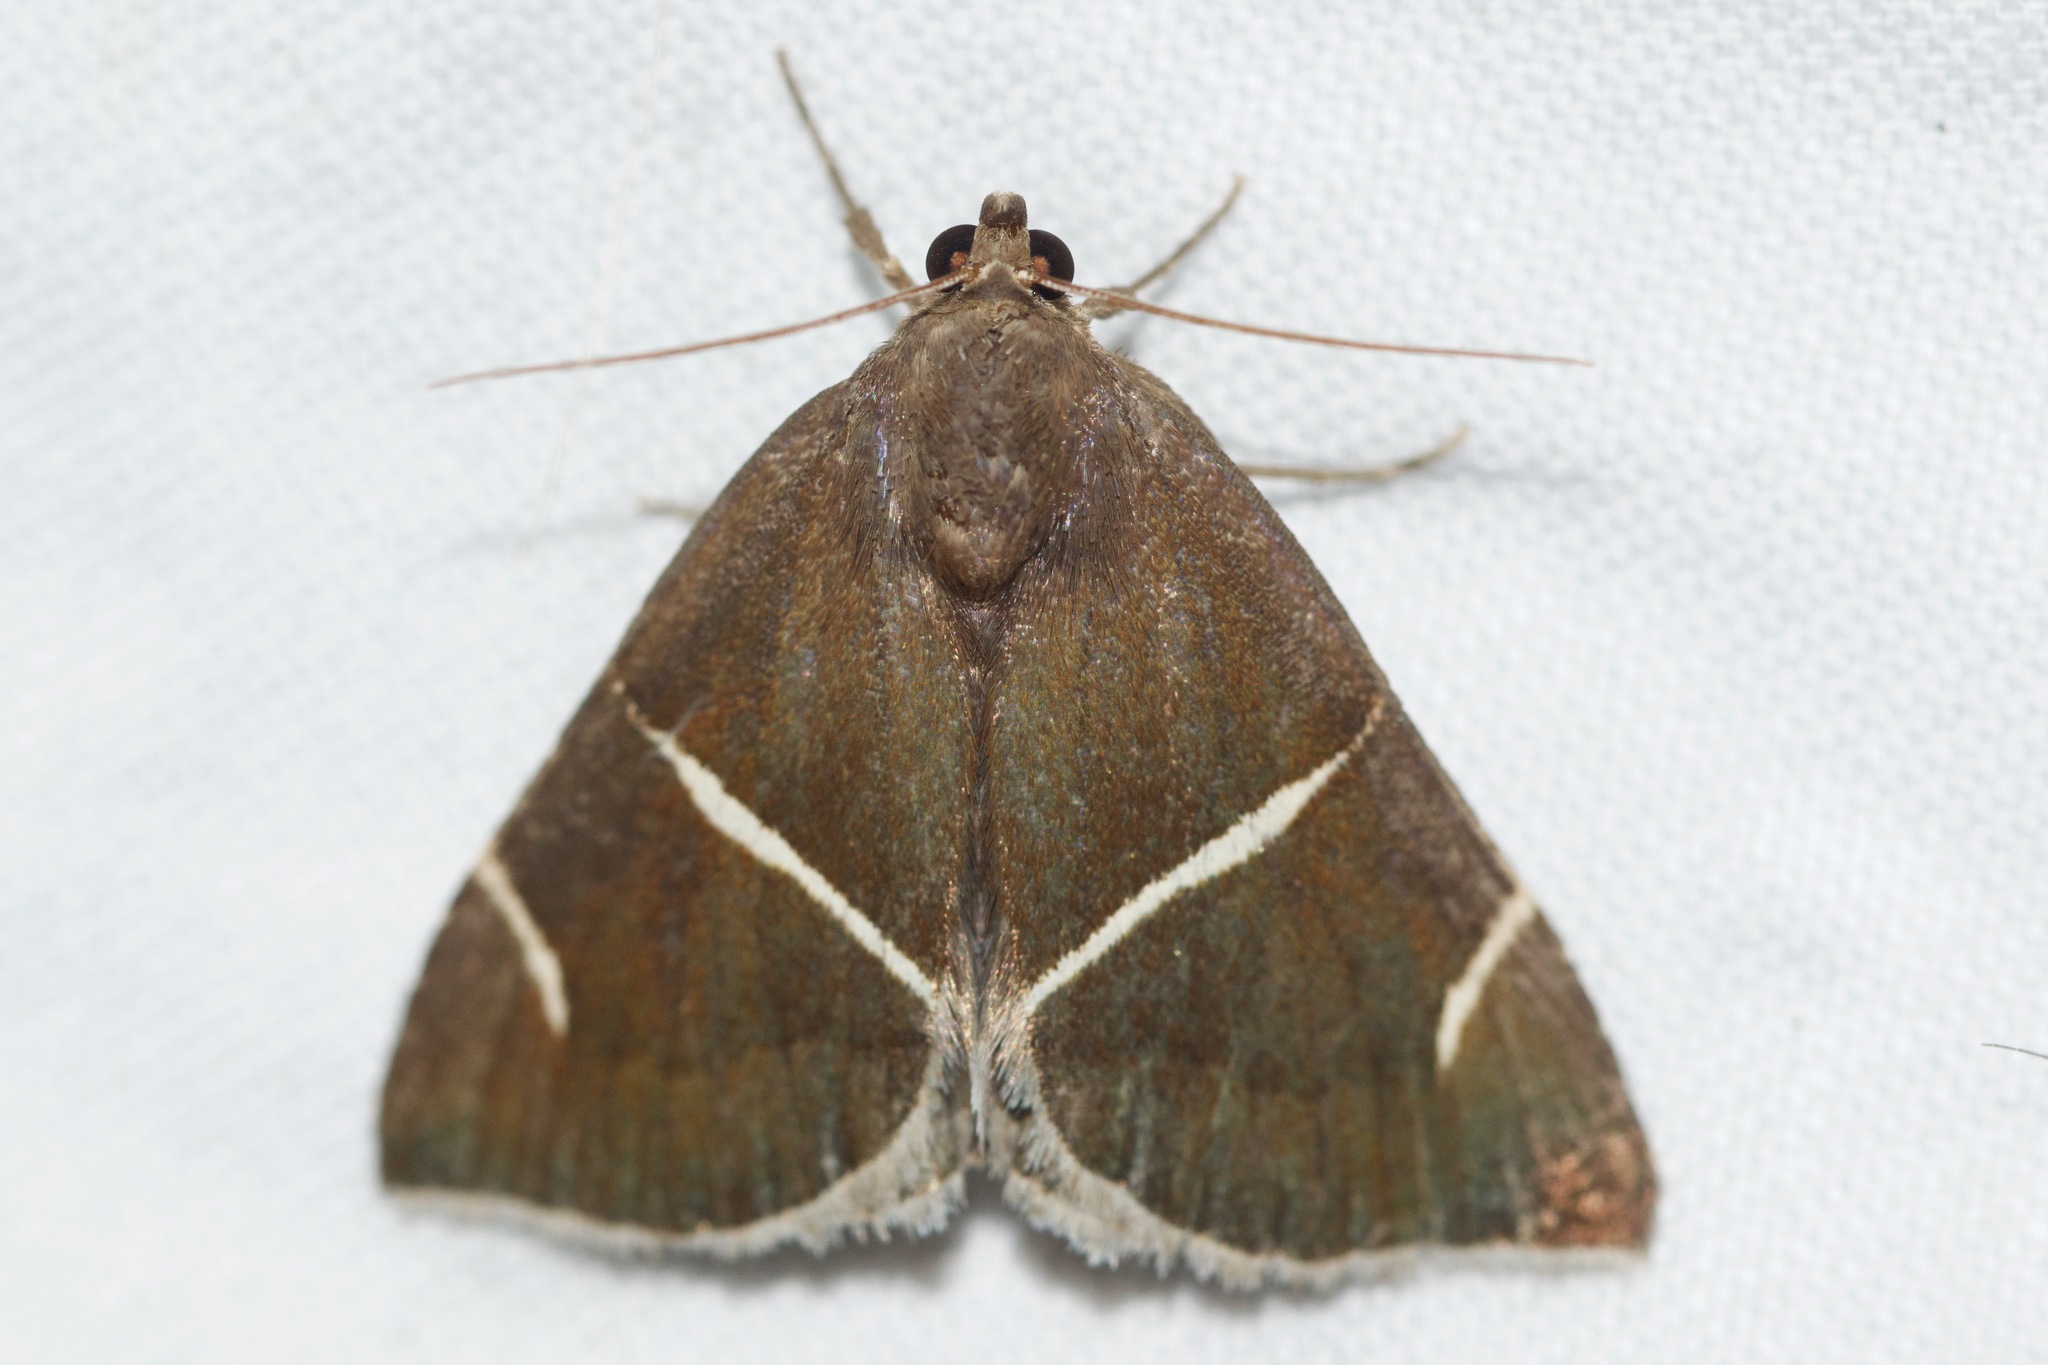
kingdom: Animalia
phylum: Arthropoda
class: Insecta
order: Lepidoptera
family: Erebidae
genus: Argyrostrotis
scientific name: Argyrostrotis anilis
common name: Short-lined chocolate
